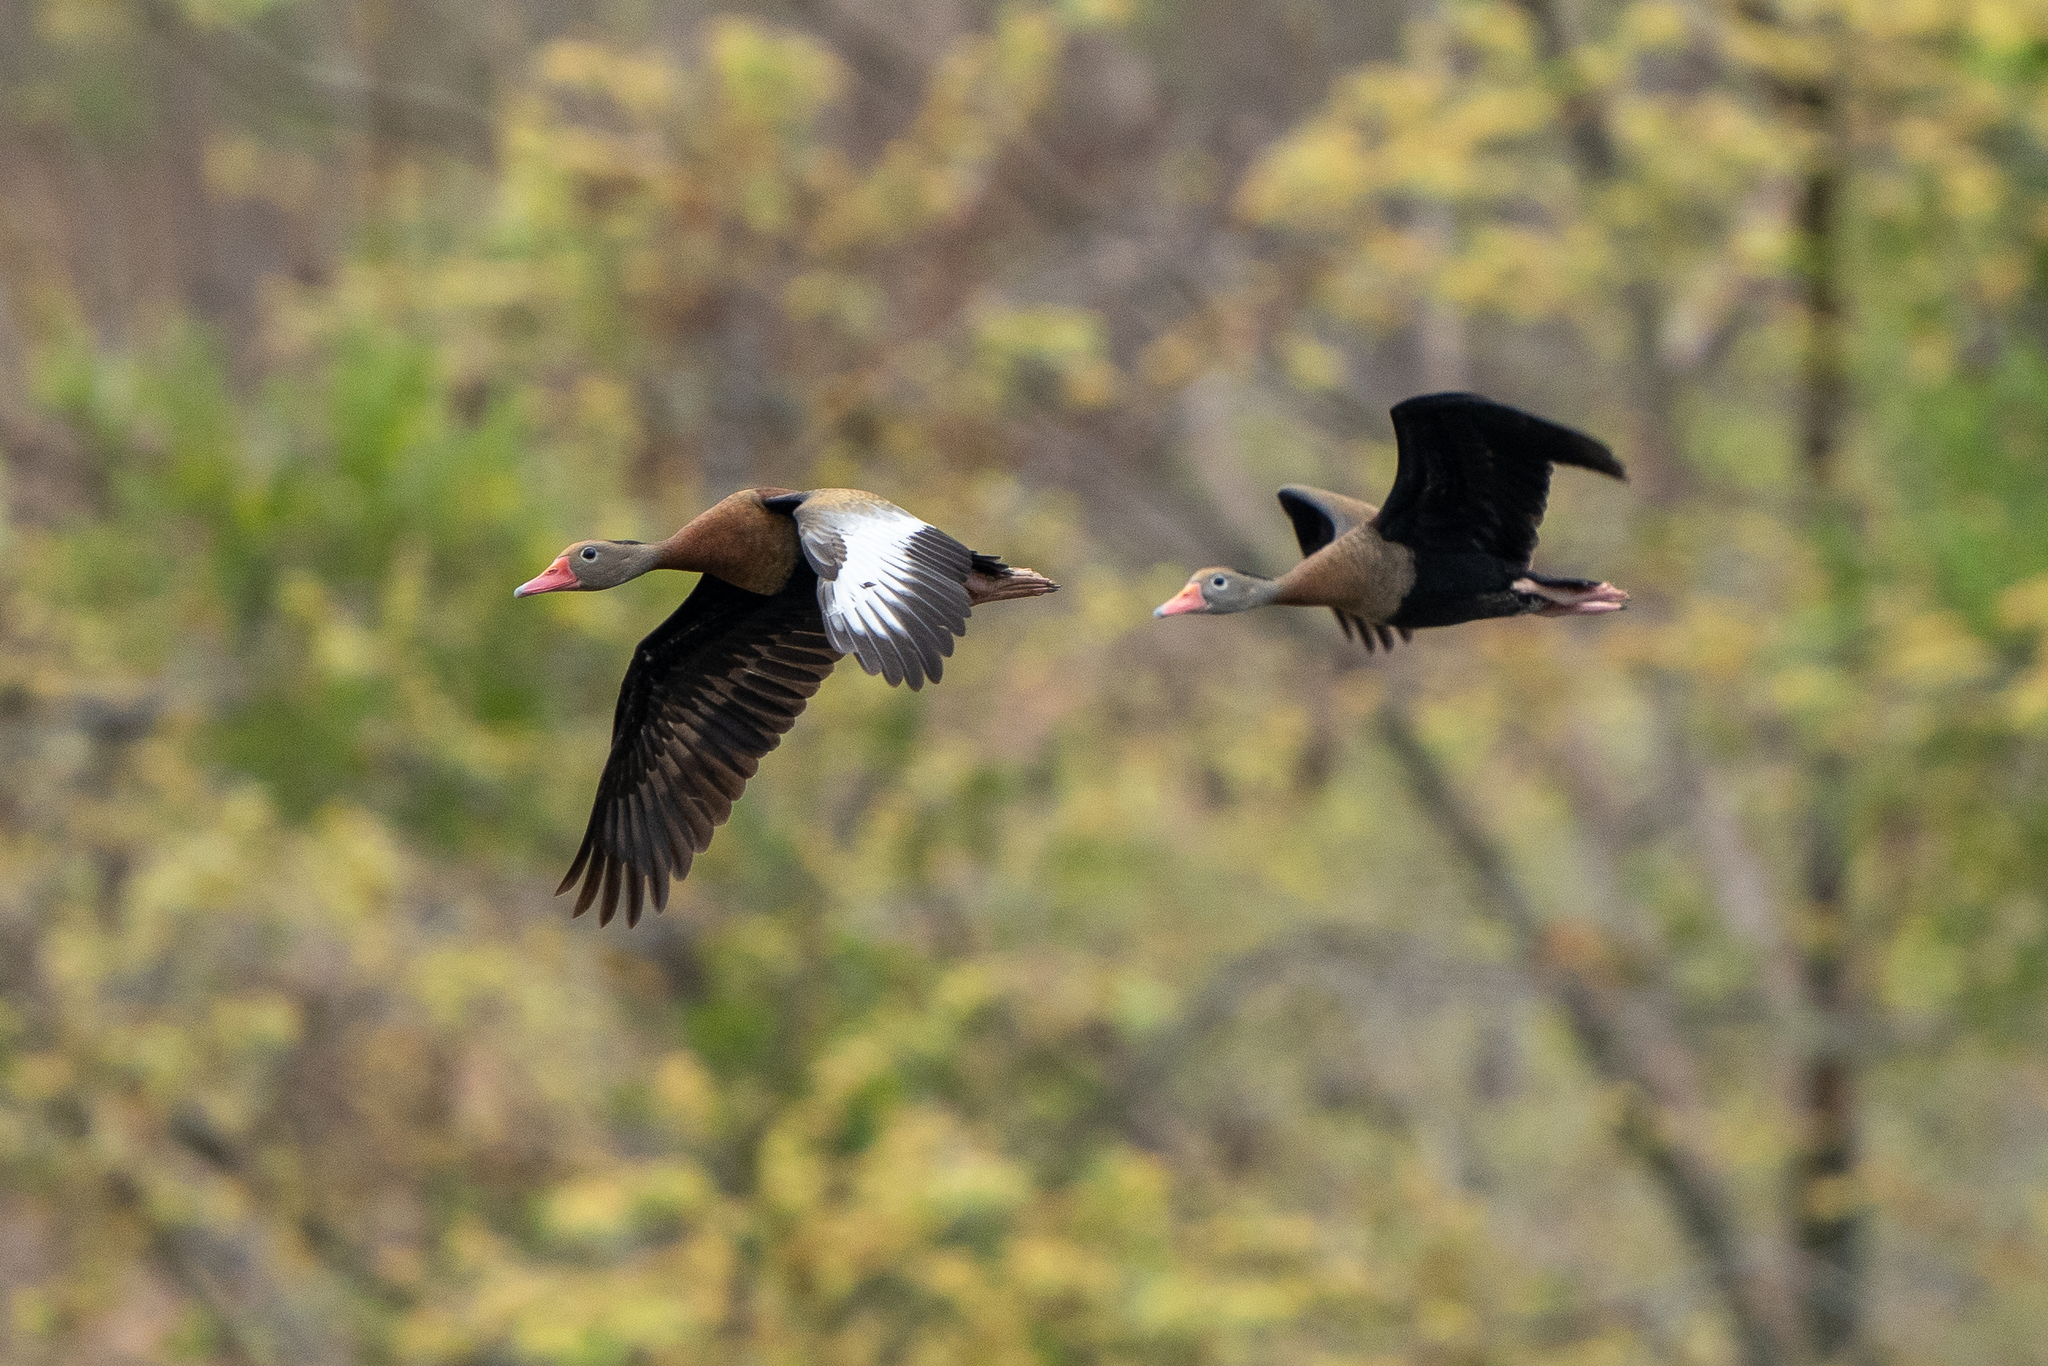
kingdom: Animalia
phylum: Chordata
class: Aves
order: Anseriformes
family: Anatidae
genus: Dendrocygna
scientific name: Dendrocygna autumnalis
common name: Black-bellied whistling duck
